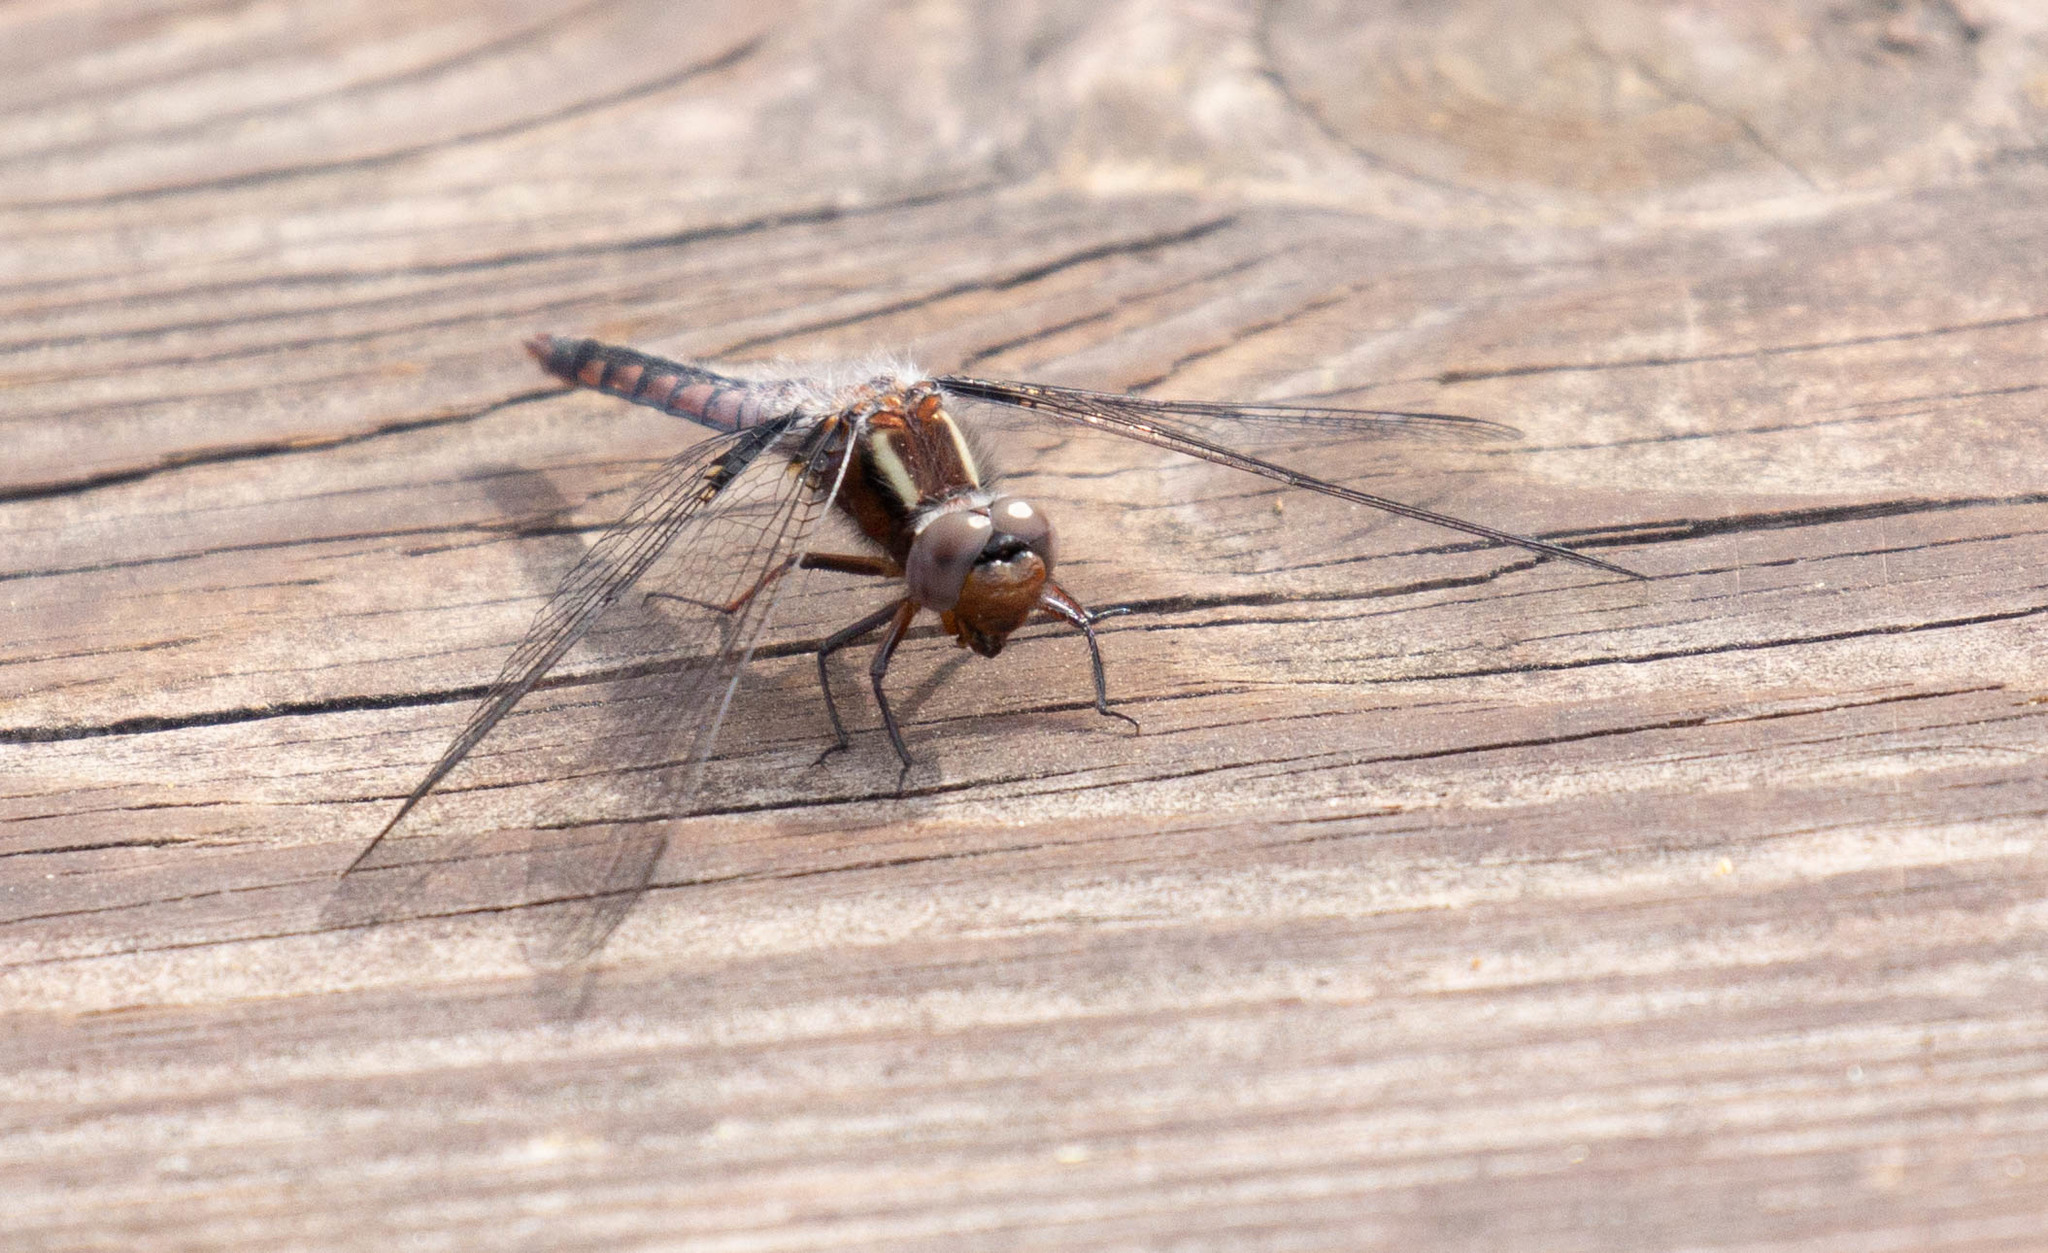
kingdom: Animalia
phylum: Arthropoda
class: Insecta
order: Odonata
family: Libellulidae
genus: Ladona
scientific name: Ladona deplanata
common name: Blue corporal
